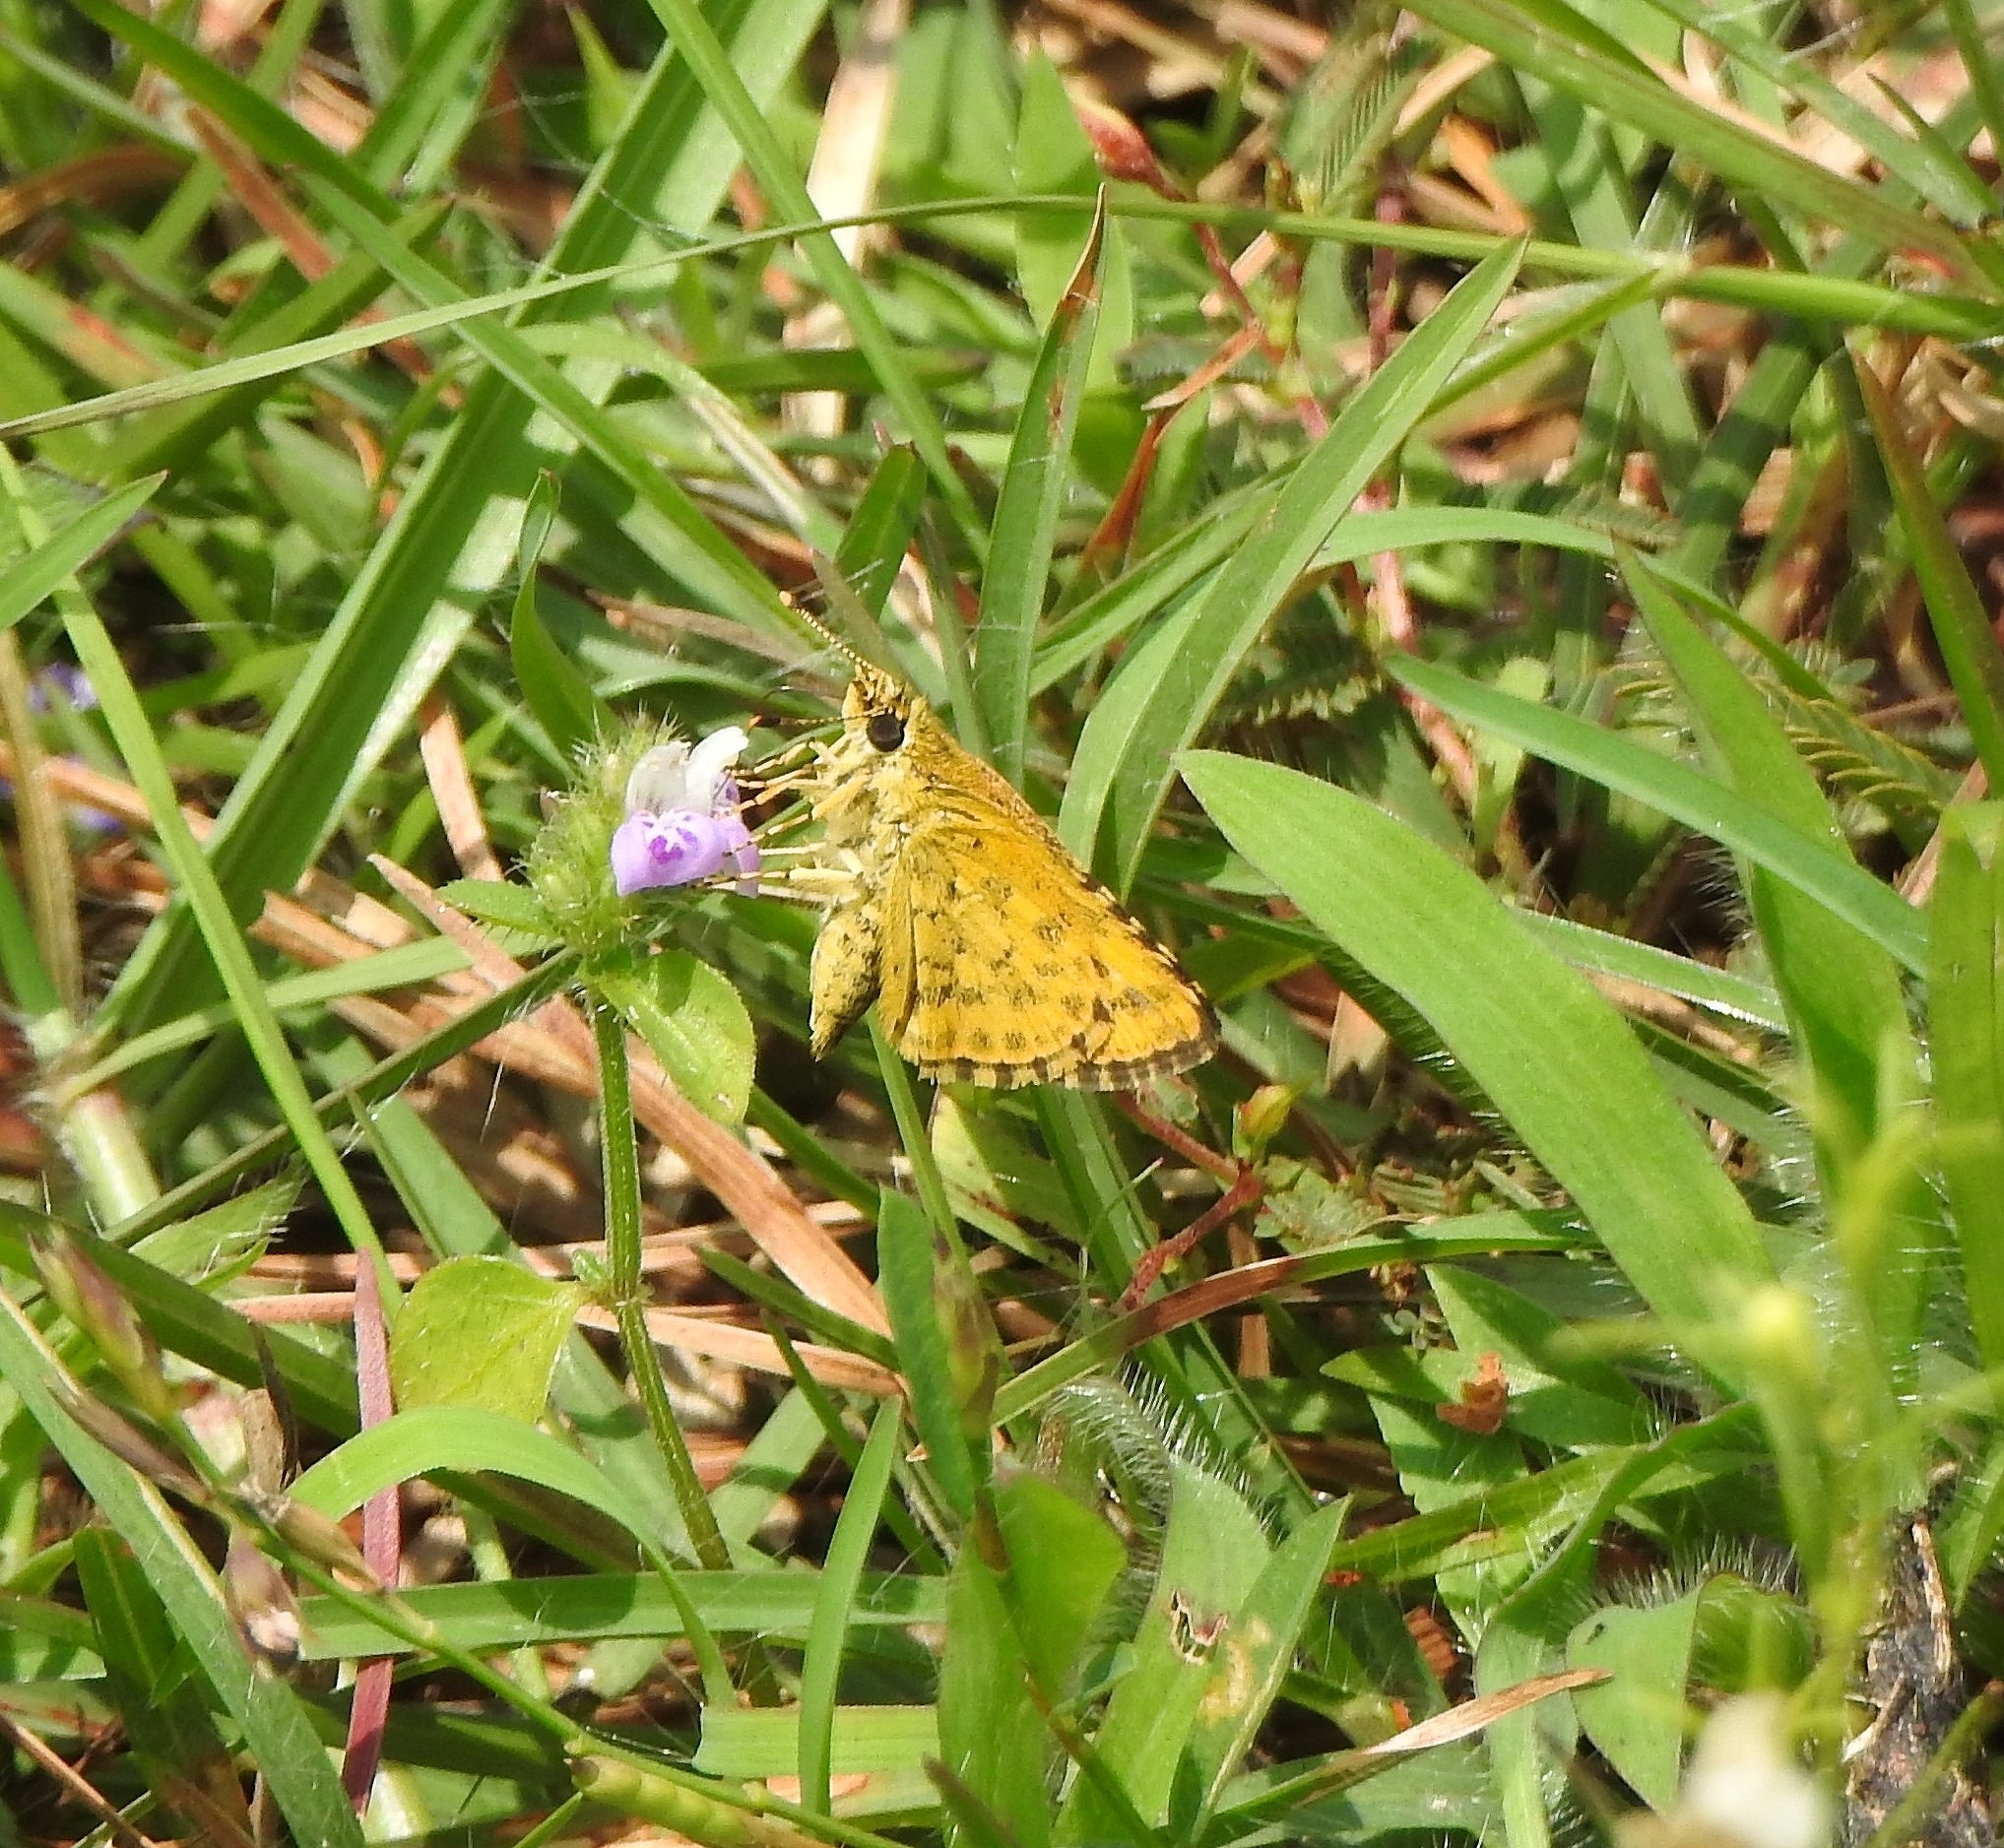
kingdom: Animalia
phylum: Arthropoda
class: Insecta
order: Lepidoptera
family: Hesperiidae
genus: Ampittia
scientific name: Ampittia dioscorides
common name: Common bush hopper
